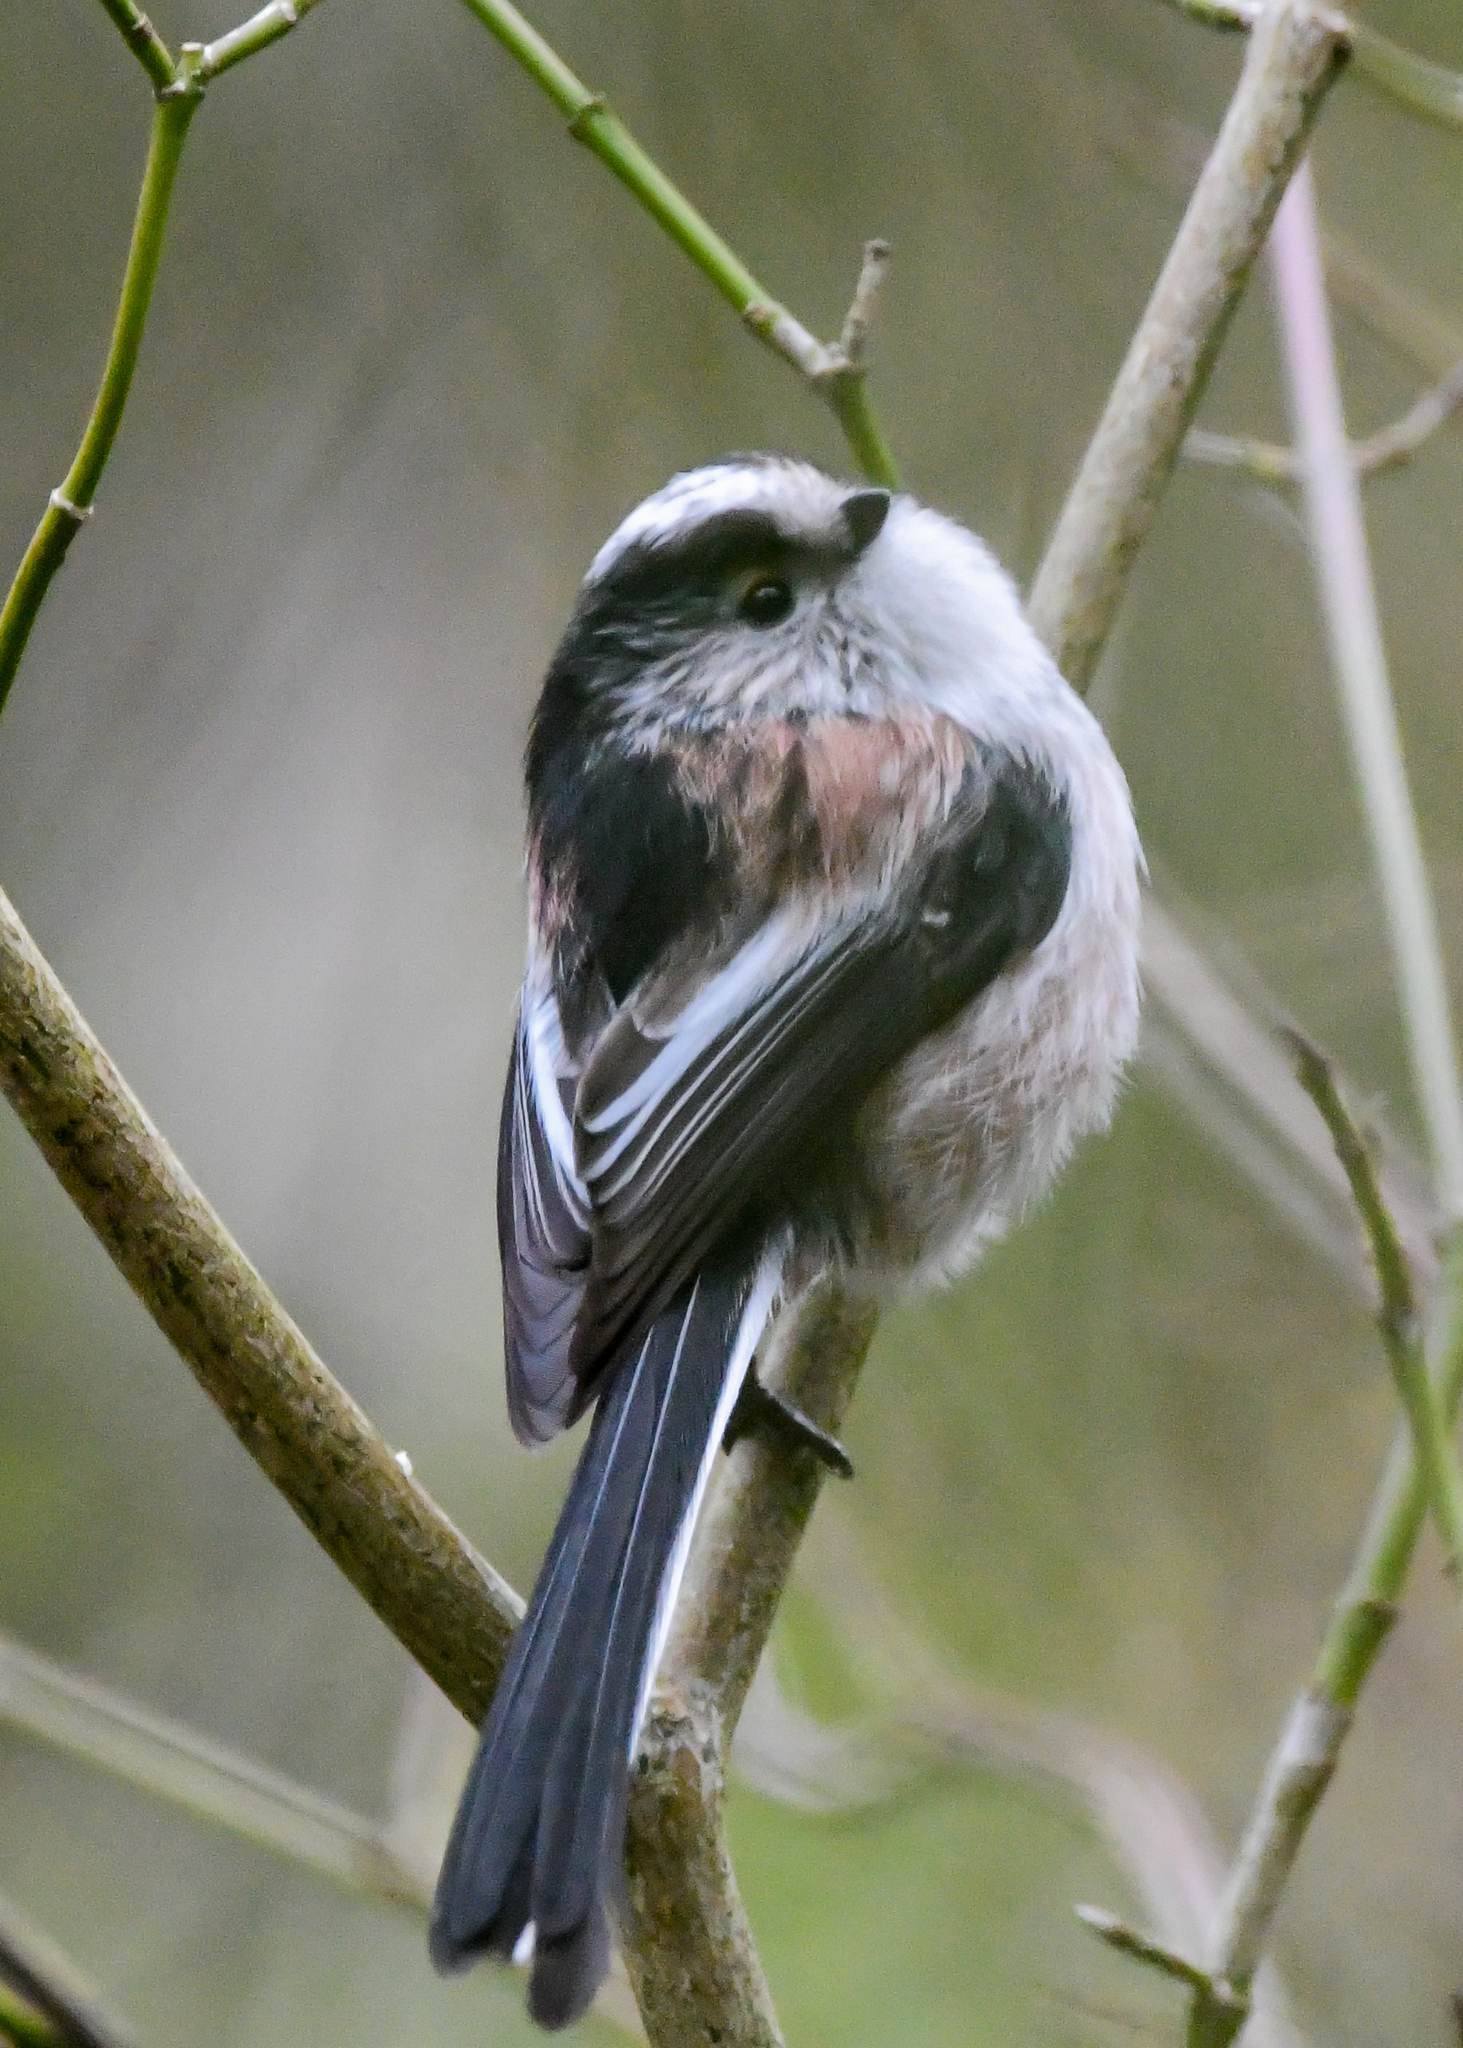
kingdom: Animalia
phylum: Chordata
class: Aves
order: Passeriformes
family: Aegithalidae
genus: Aegithalos
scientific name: Aegithalos caudatus
